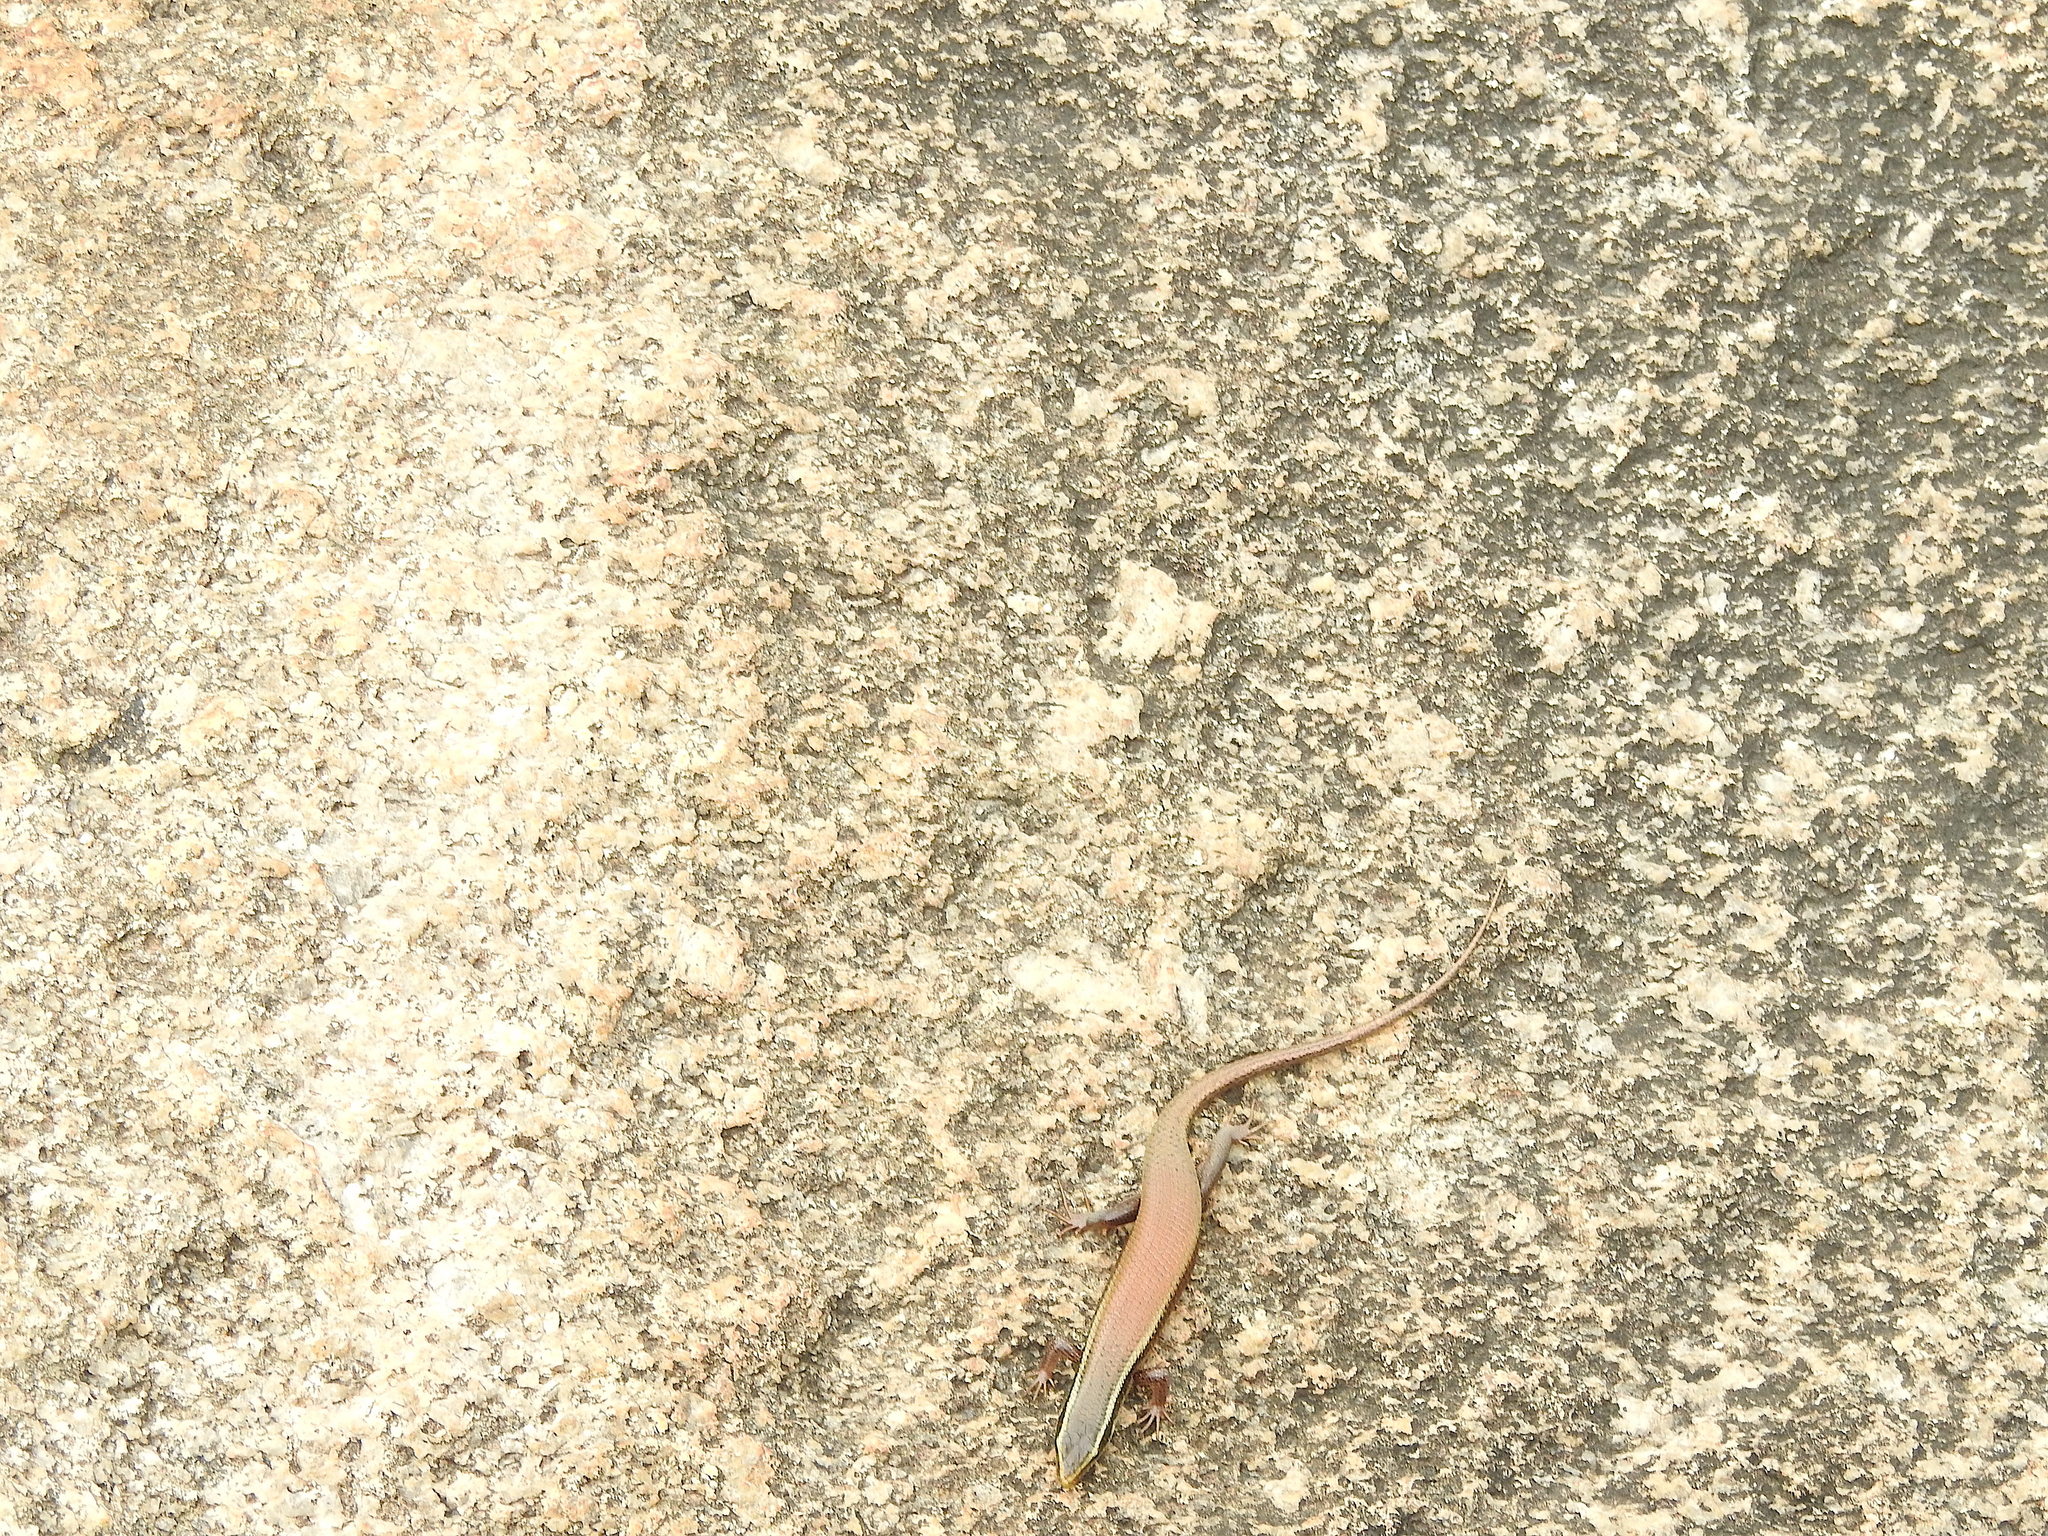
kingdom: Animalia
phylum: Chordata
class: Squamata
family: Scincidae
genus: Eutropis
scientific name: Eutropis carinata
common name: Keeled indian mabuya
